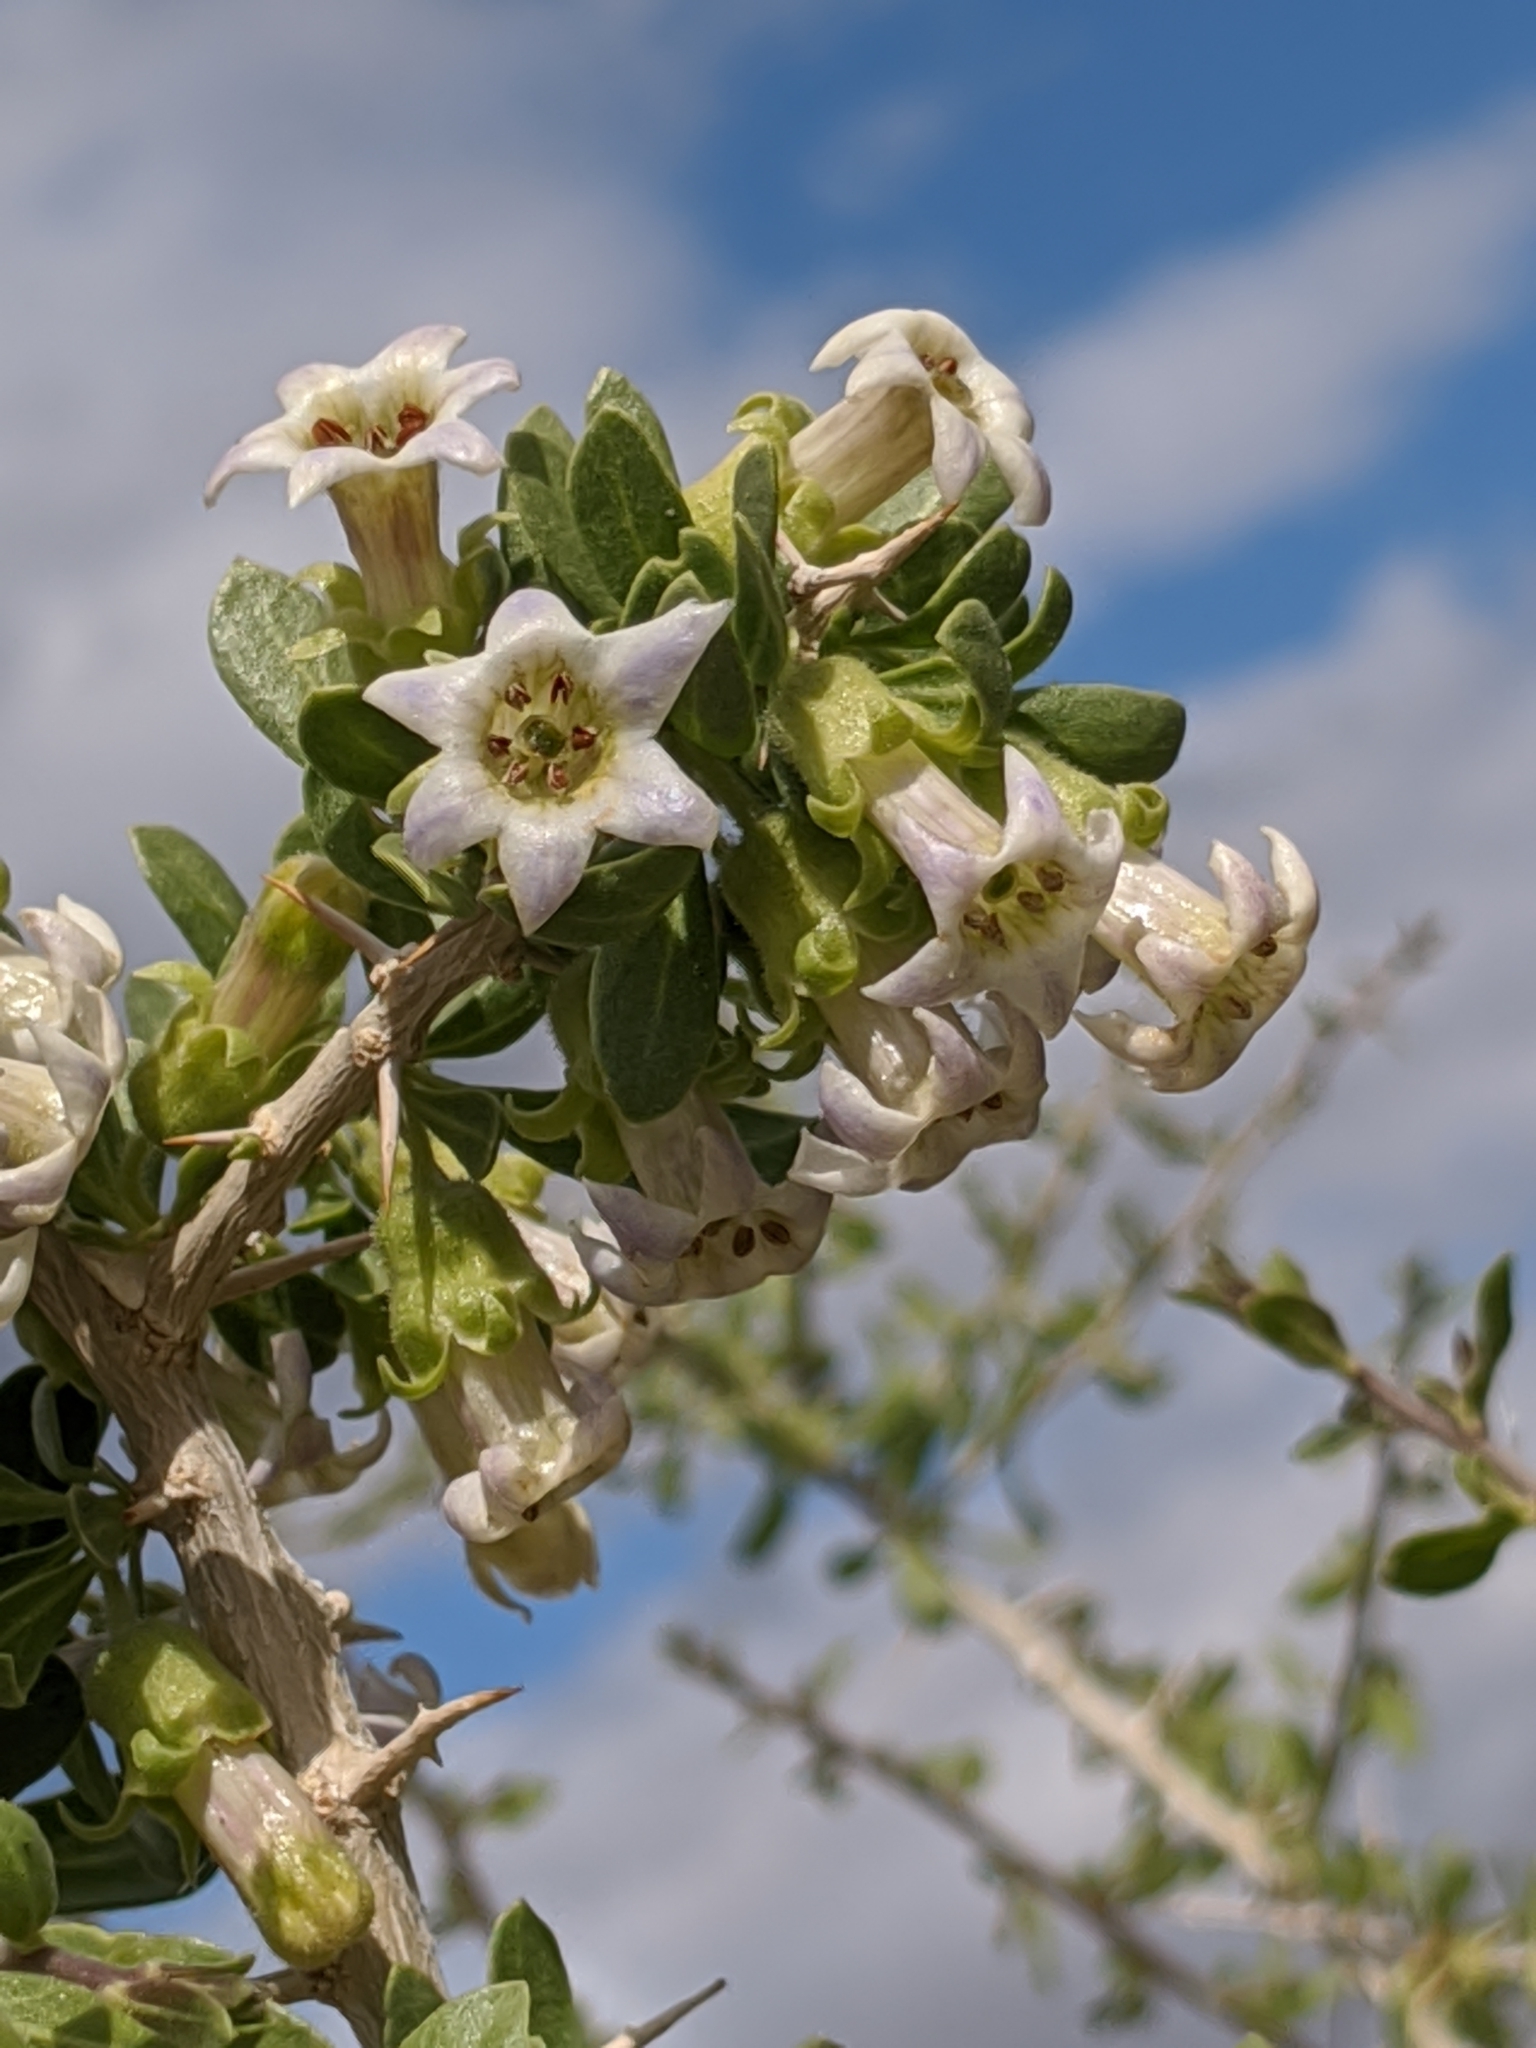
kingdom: Plantae
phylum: Tracheophyta
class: Magnoliopsida
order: Solanales
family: Solanaceae
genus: Lycium
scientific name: Lycium cooperi
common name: Peachthorn
